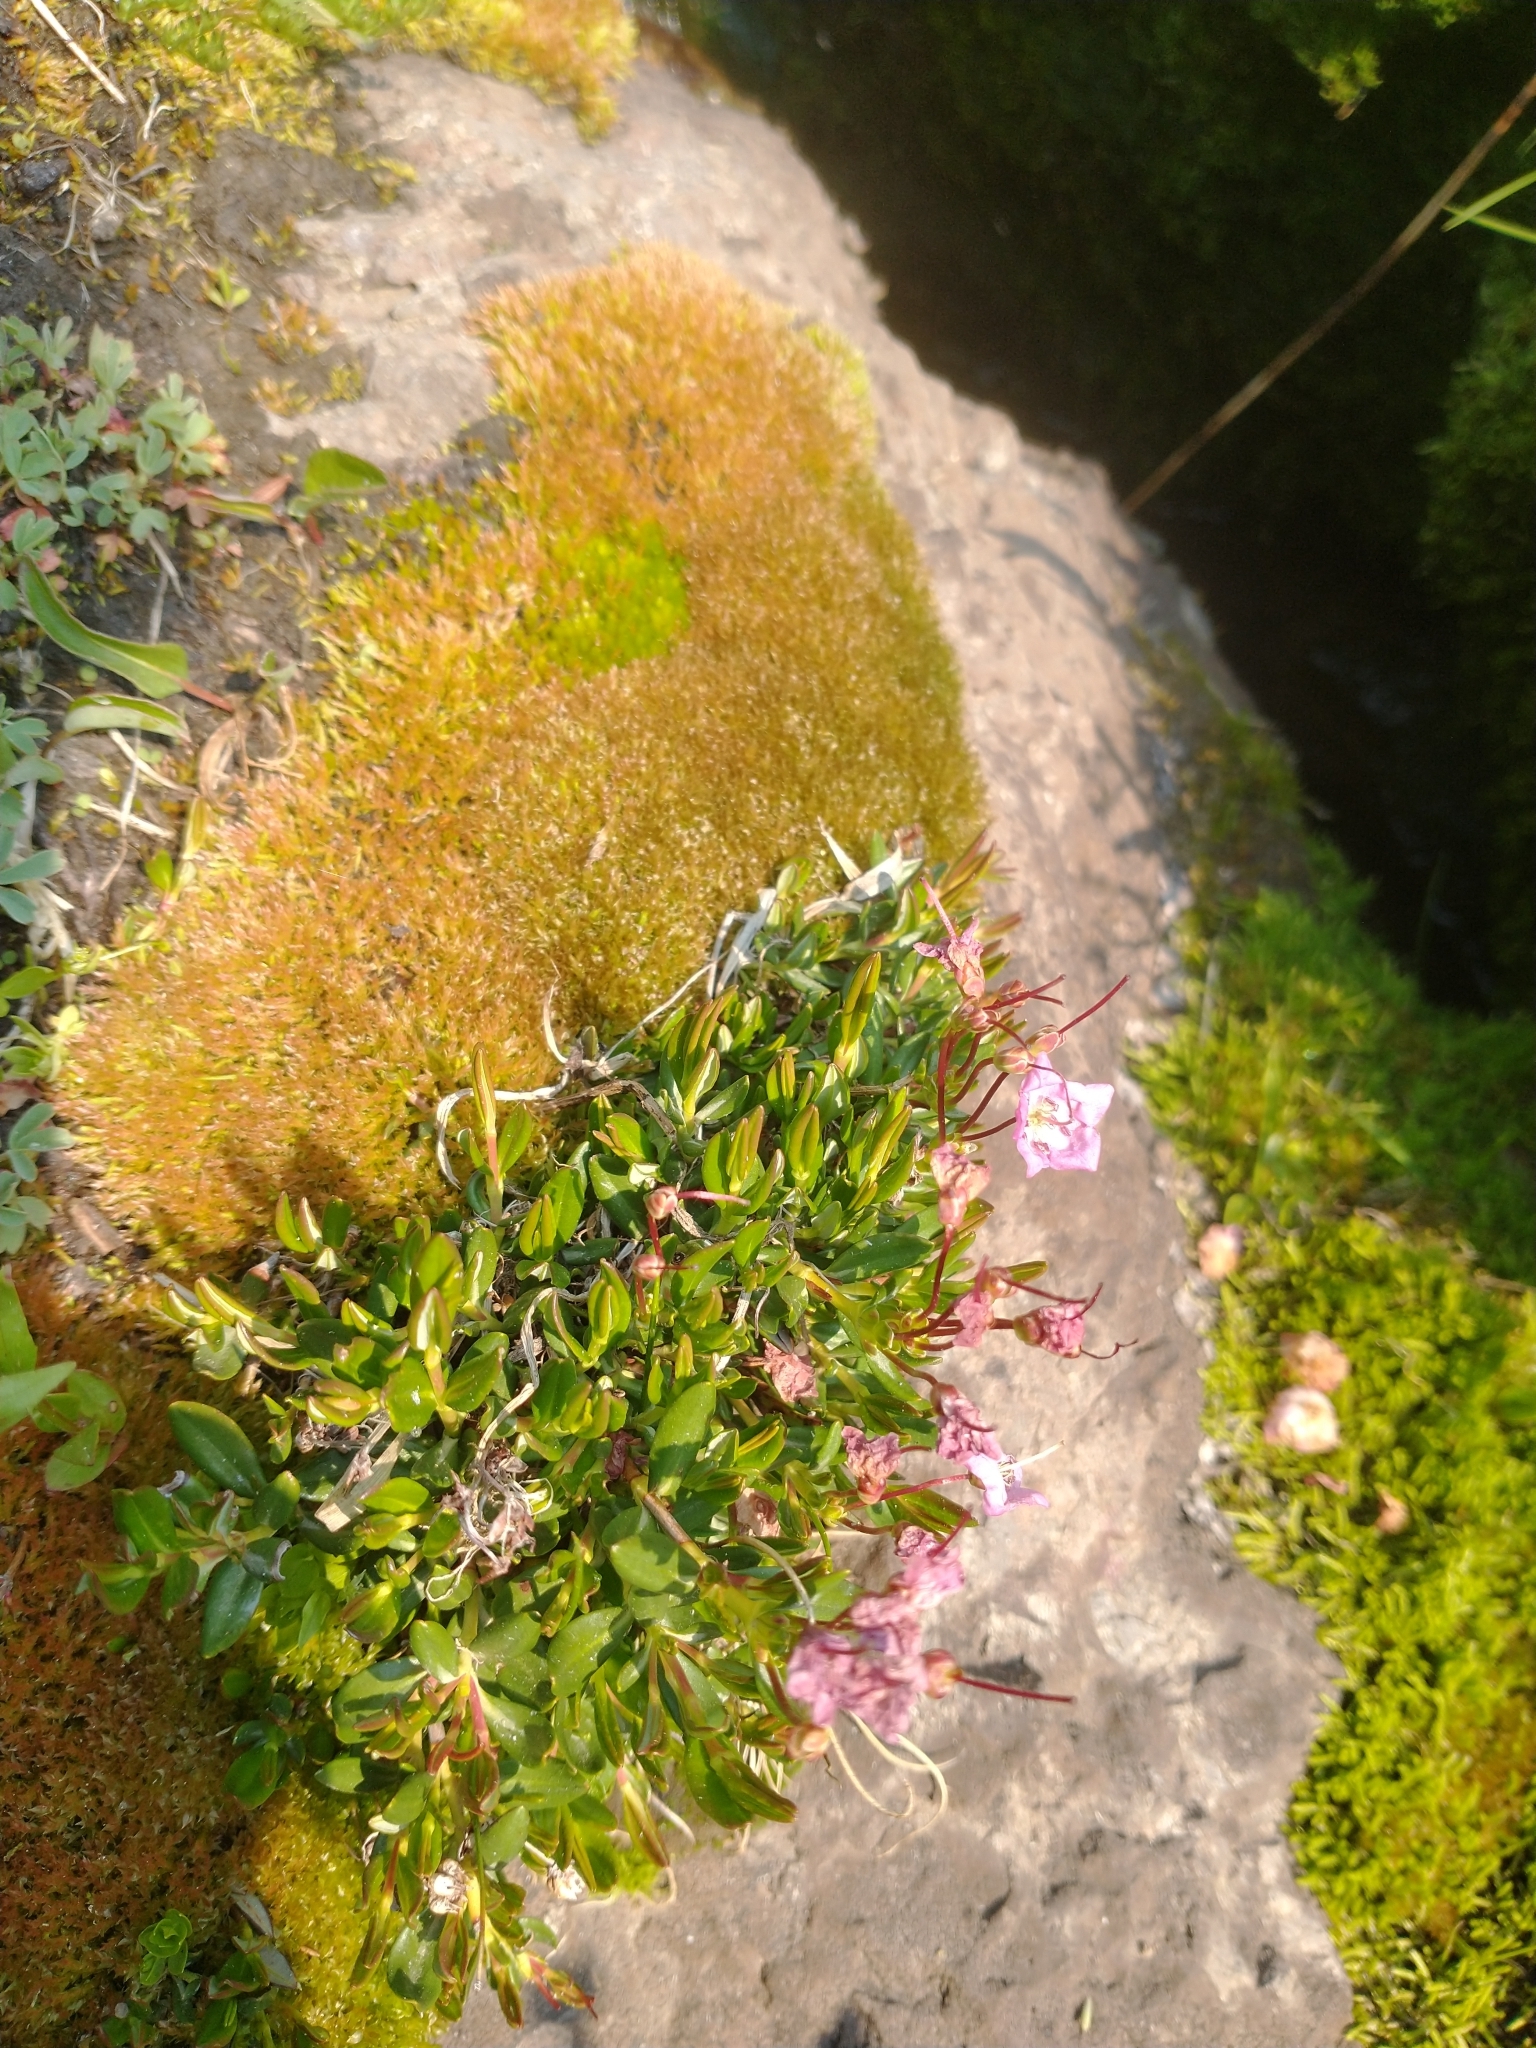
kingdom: Plantae
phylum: Tracheophyta
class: Magnoliopsida
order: Ericales
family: Ericaceae
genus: Kalmia
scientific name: Kalmia microphylla
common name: Alpine bog laurel
